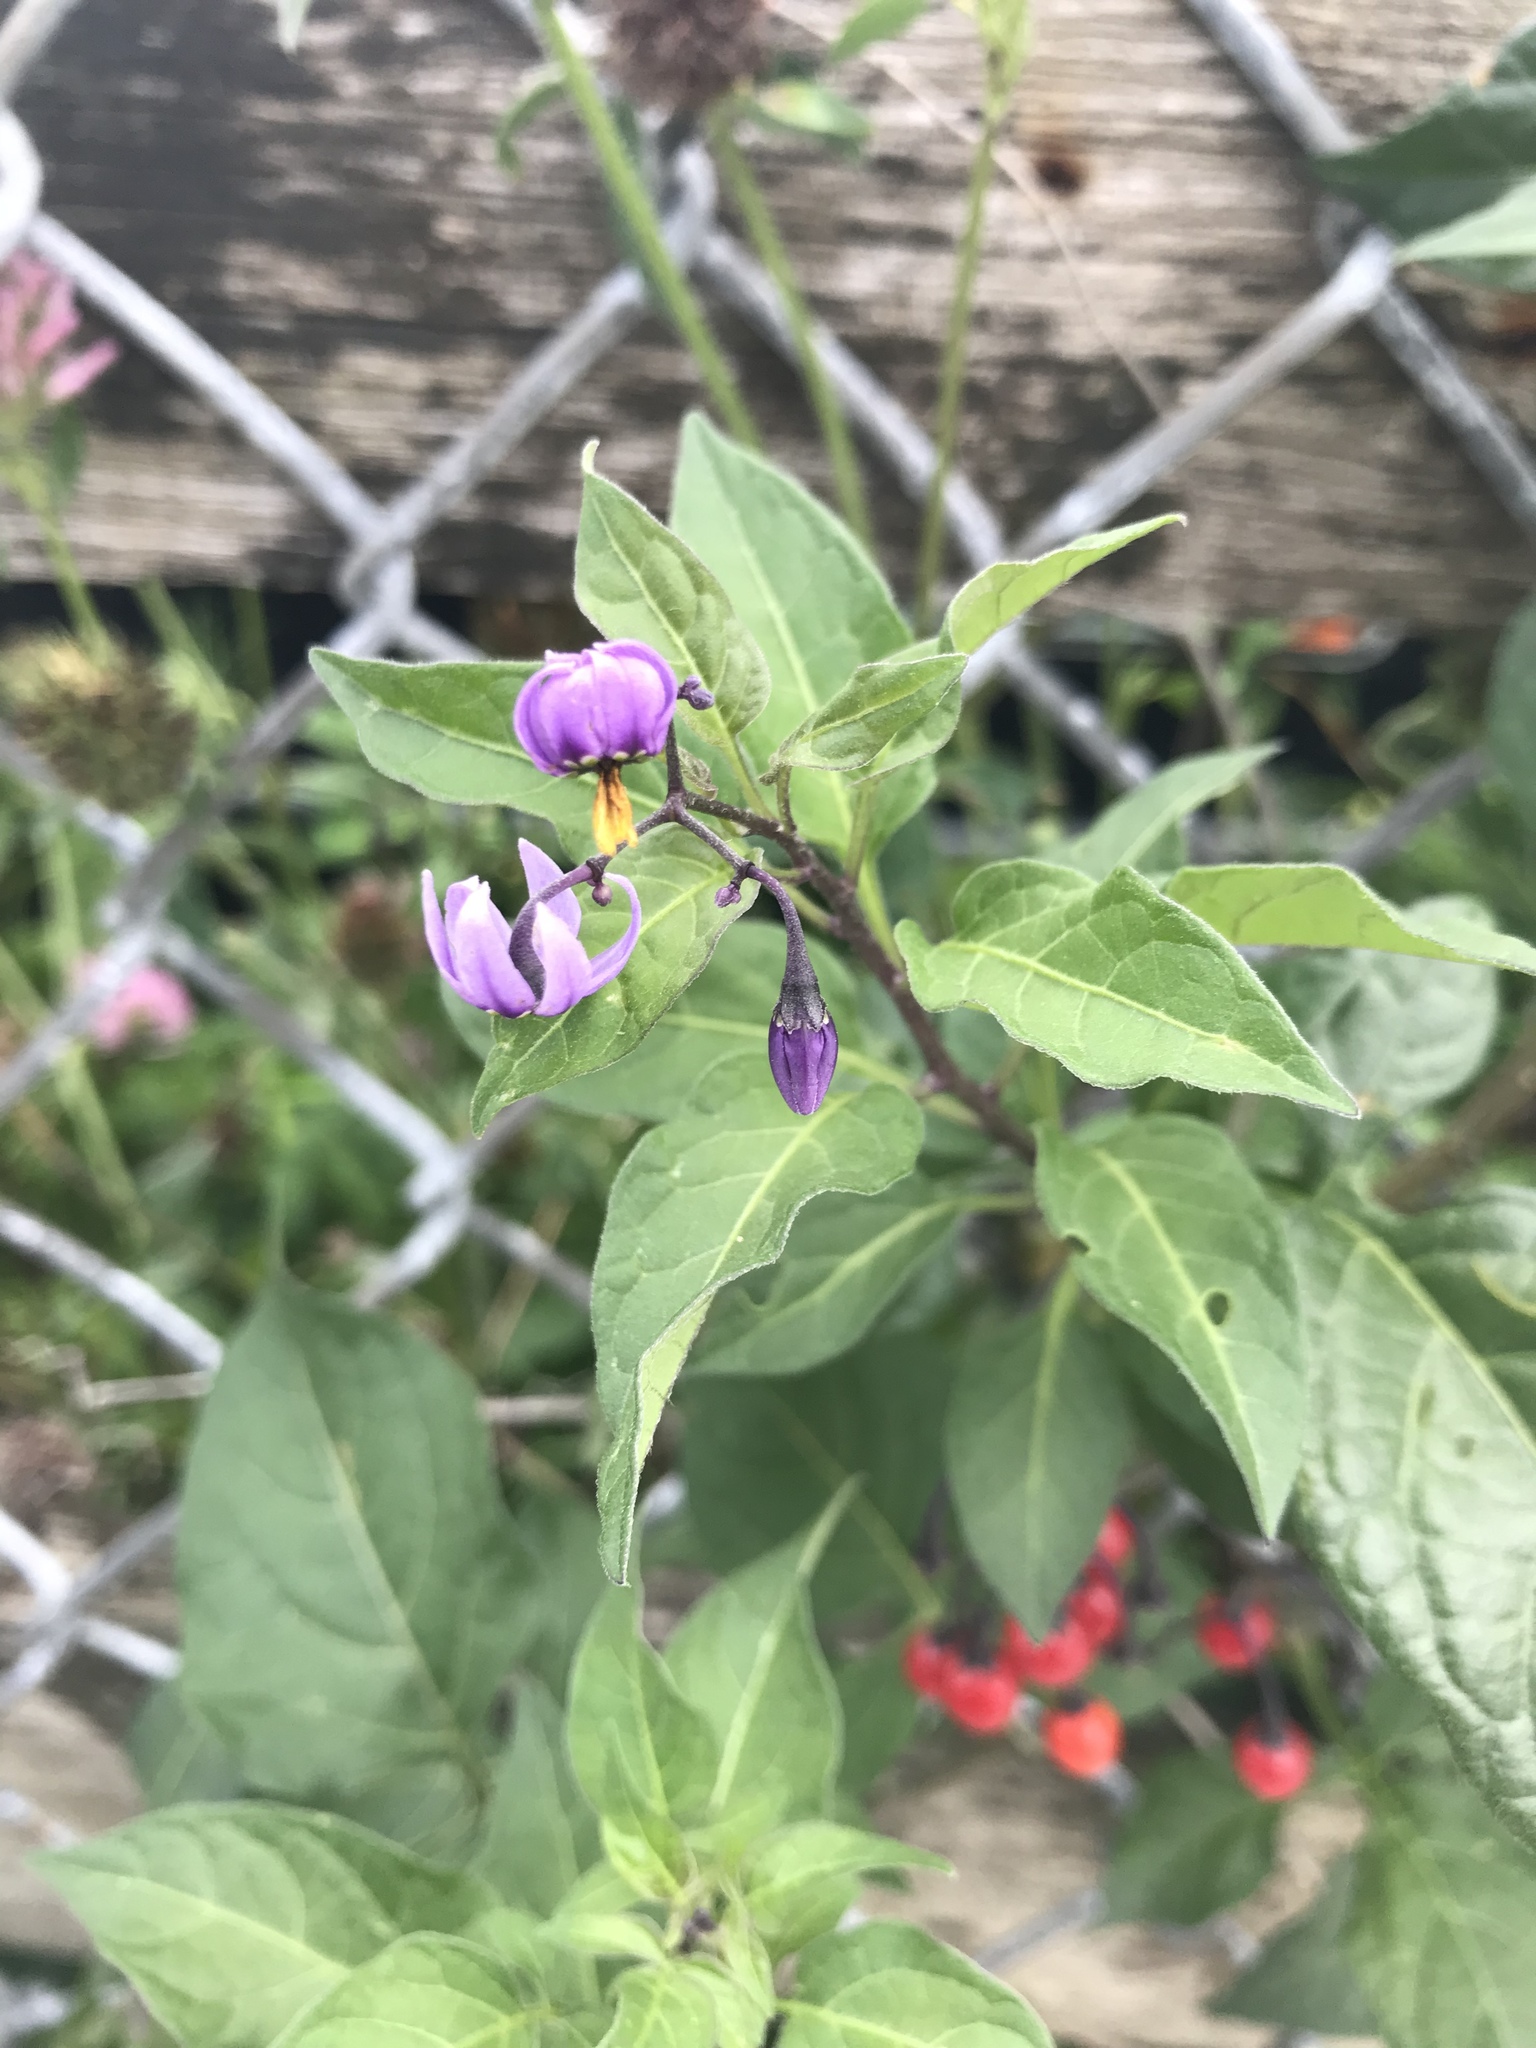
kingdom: Plantae
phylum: Tracheophyta
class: Magnoliopsida
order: Solanales
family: Solanaceae
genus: Solanum
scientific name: Solanum dulcamara
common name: Climbing nightshade
